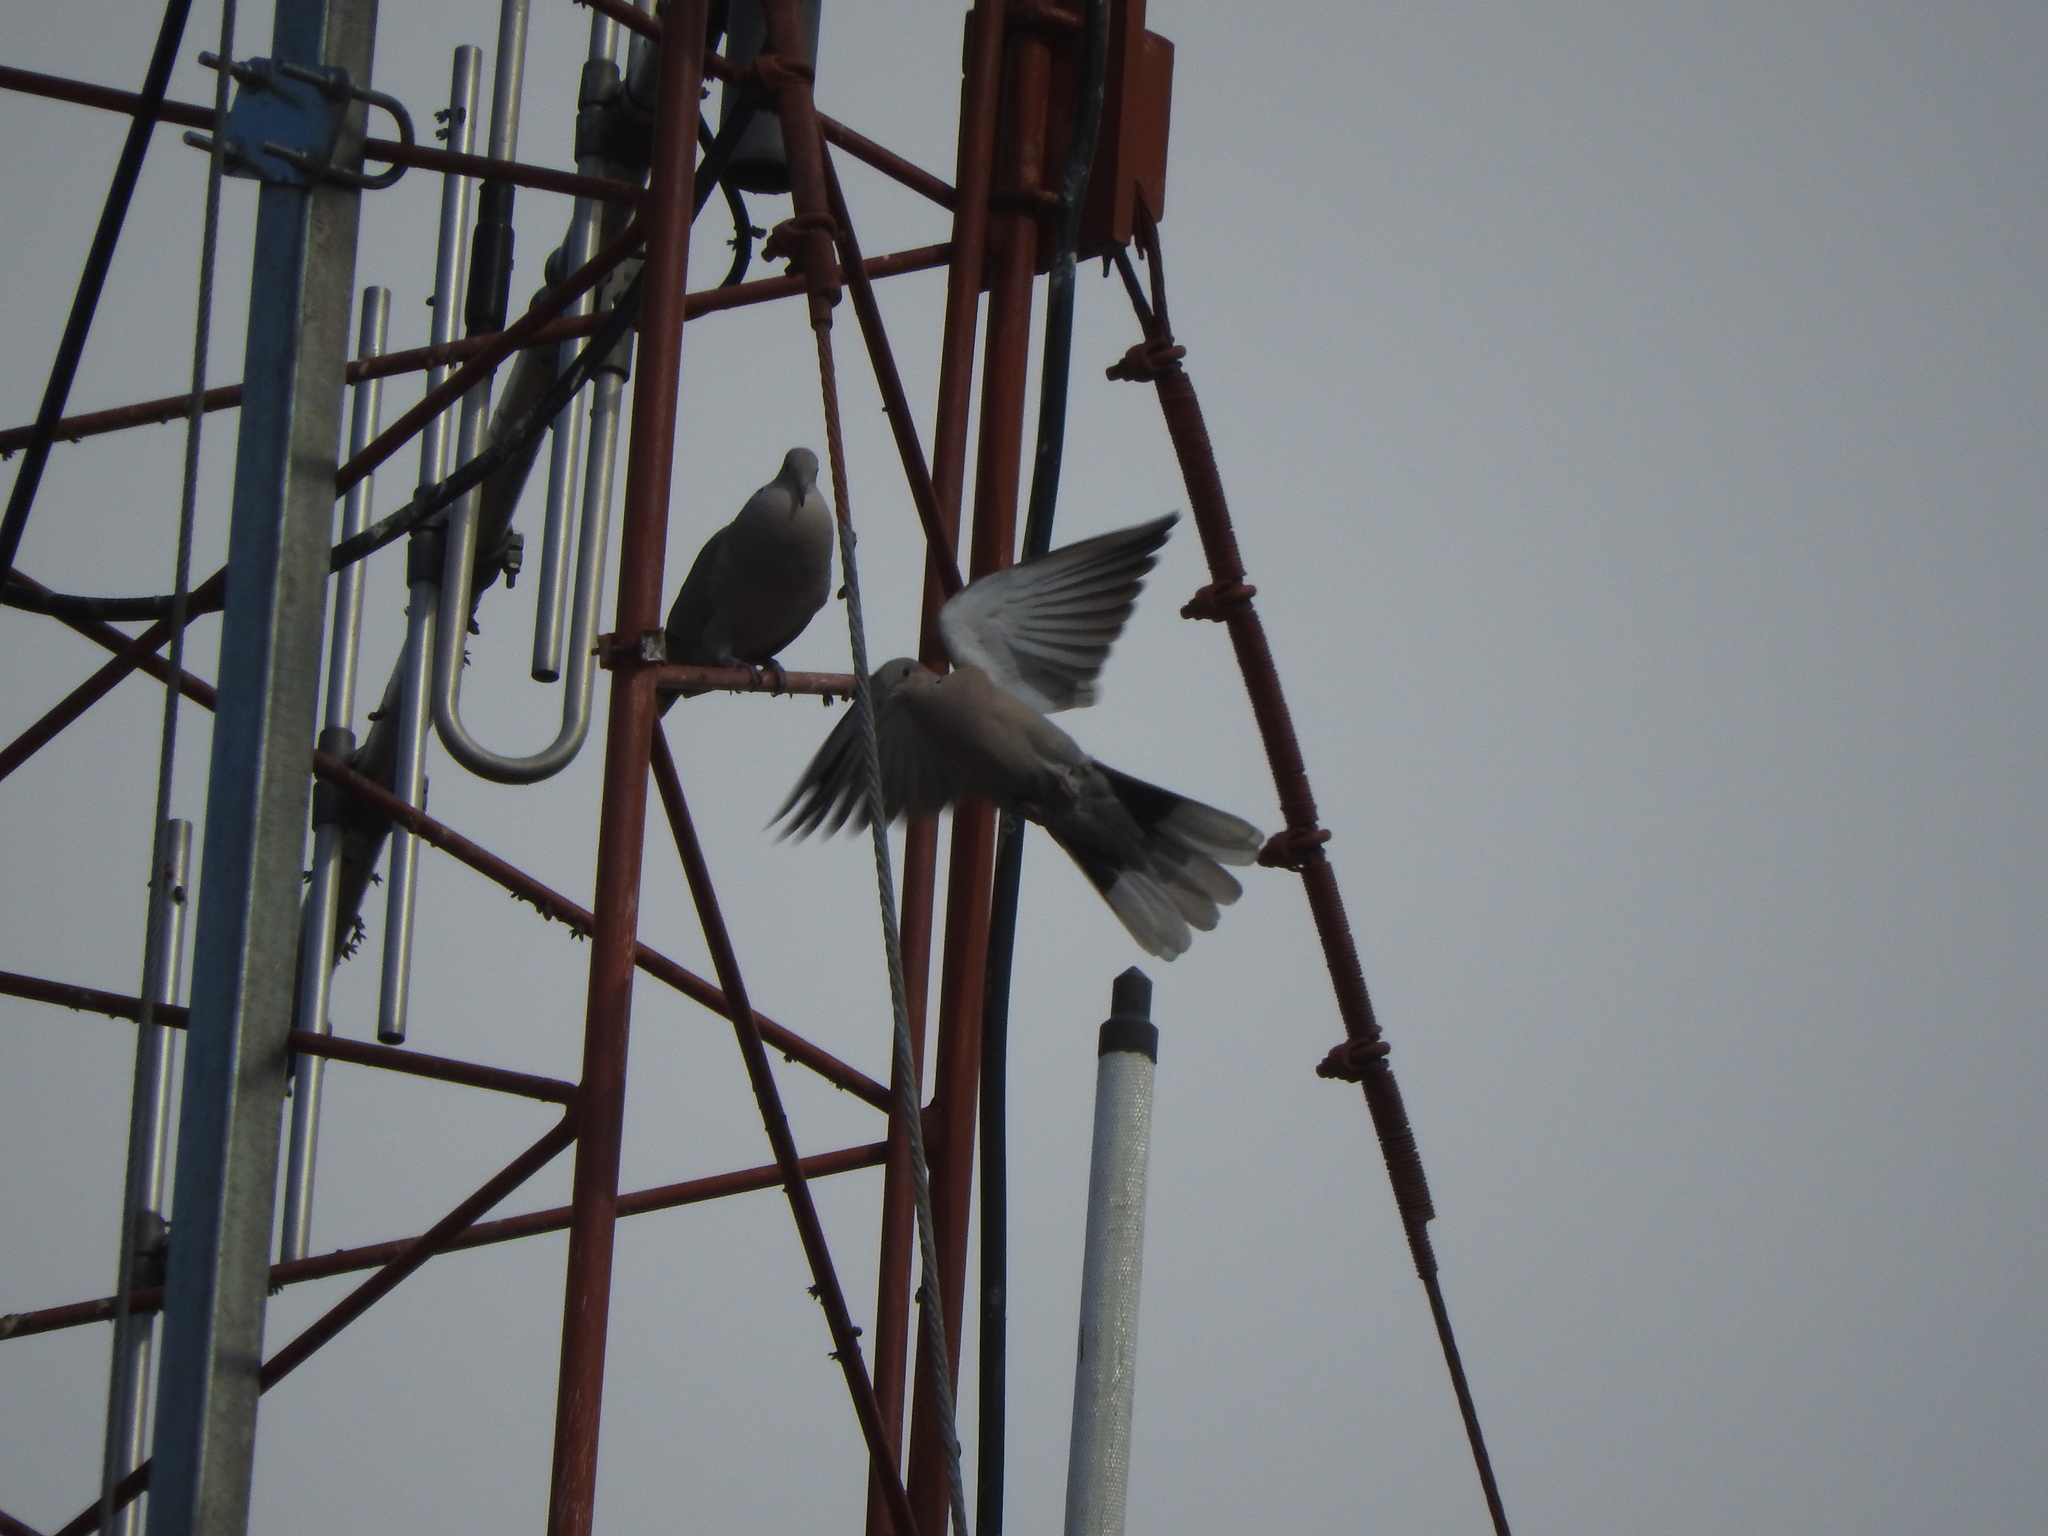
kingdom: Animalia
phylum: Chordata
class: Aves
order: Columbiformes
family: Columbidae
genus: Streptopelia
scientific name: Streptopelia decaocto
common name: Eurasian collared dove
